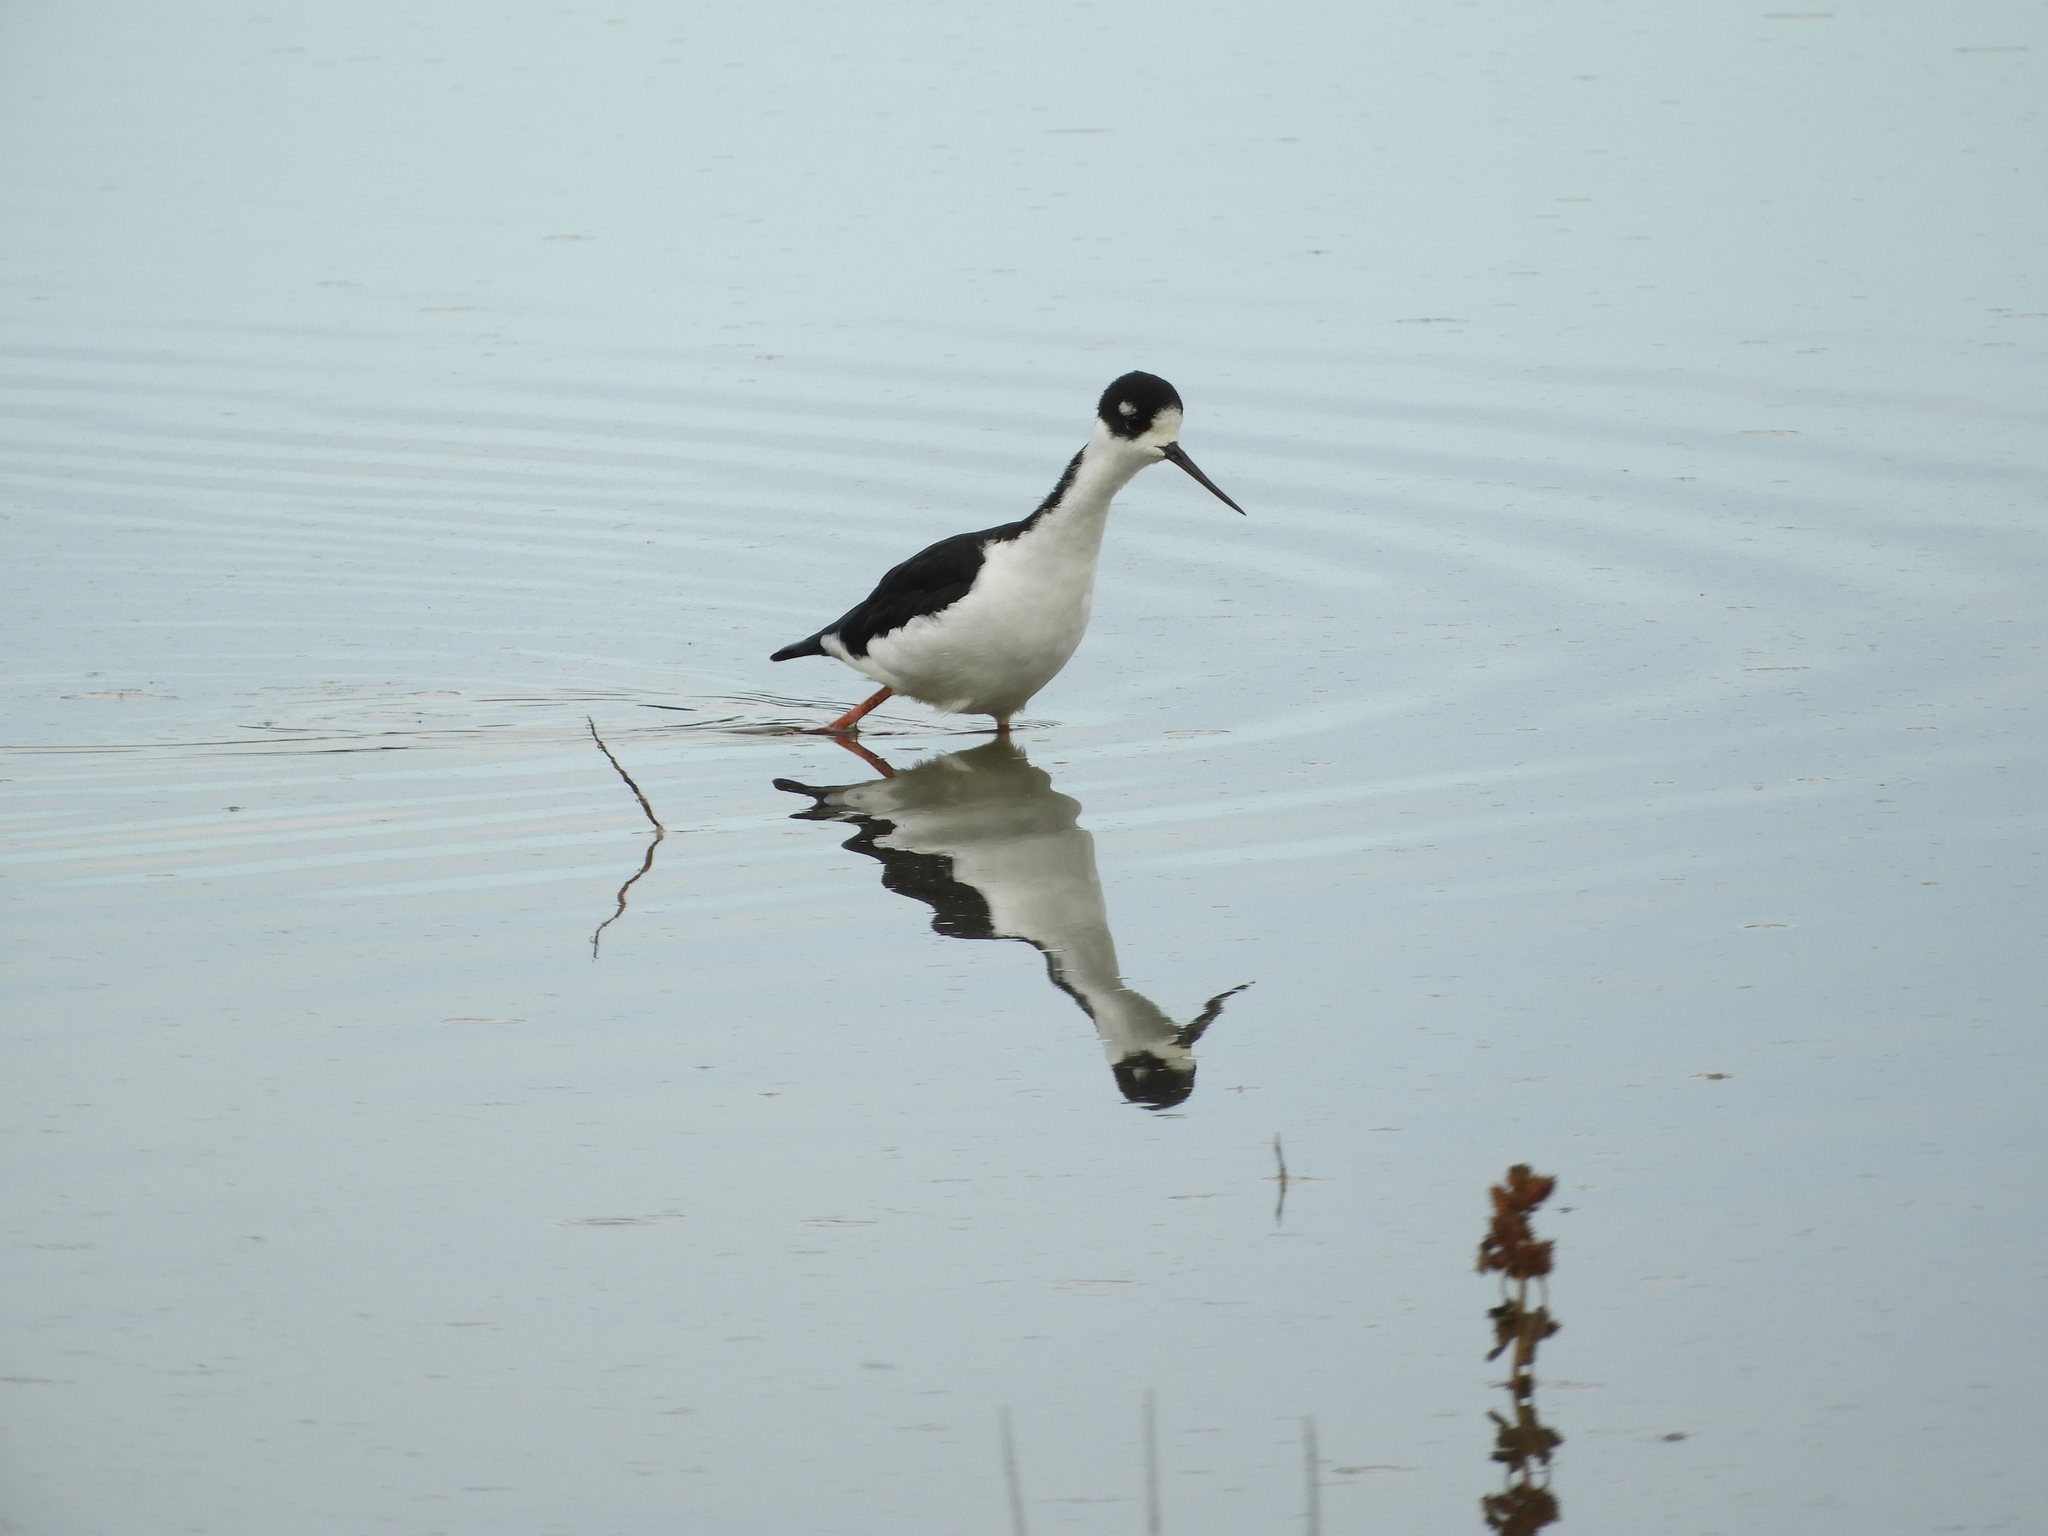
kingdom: Animalia
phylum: Chordata
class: Aves
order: Charadriiformes
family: Recurvirostridae
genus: Himantopus
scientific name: Himantopus mexicanus
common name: Black-necked stilt
